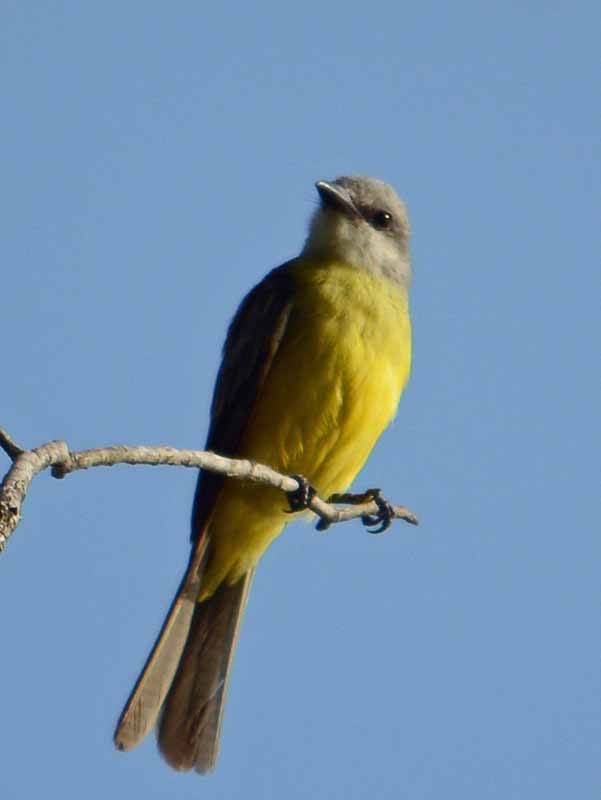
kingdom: Animalia
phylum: Chordata
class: Aves
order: Passeriformes
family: Tyrannidae
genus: Tyrannus
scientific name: Tyrannus
